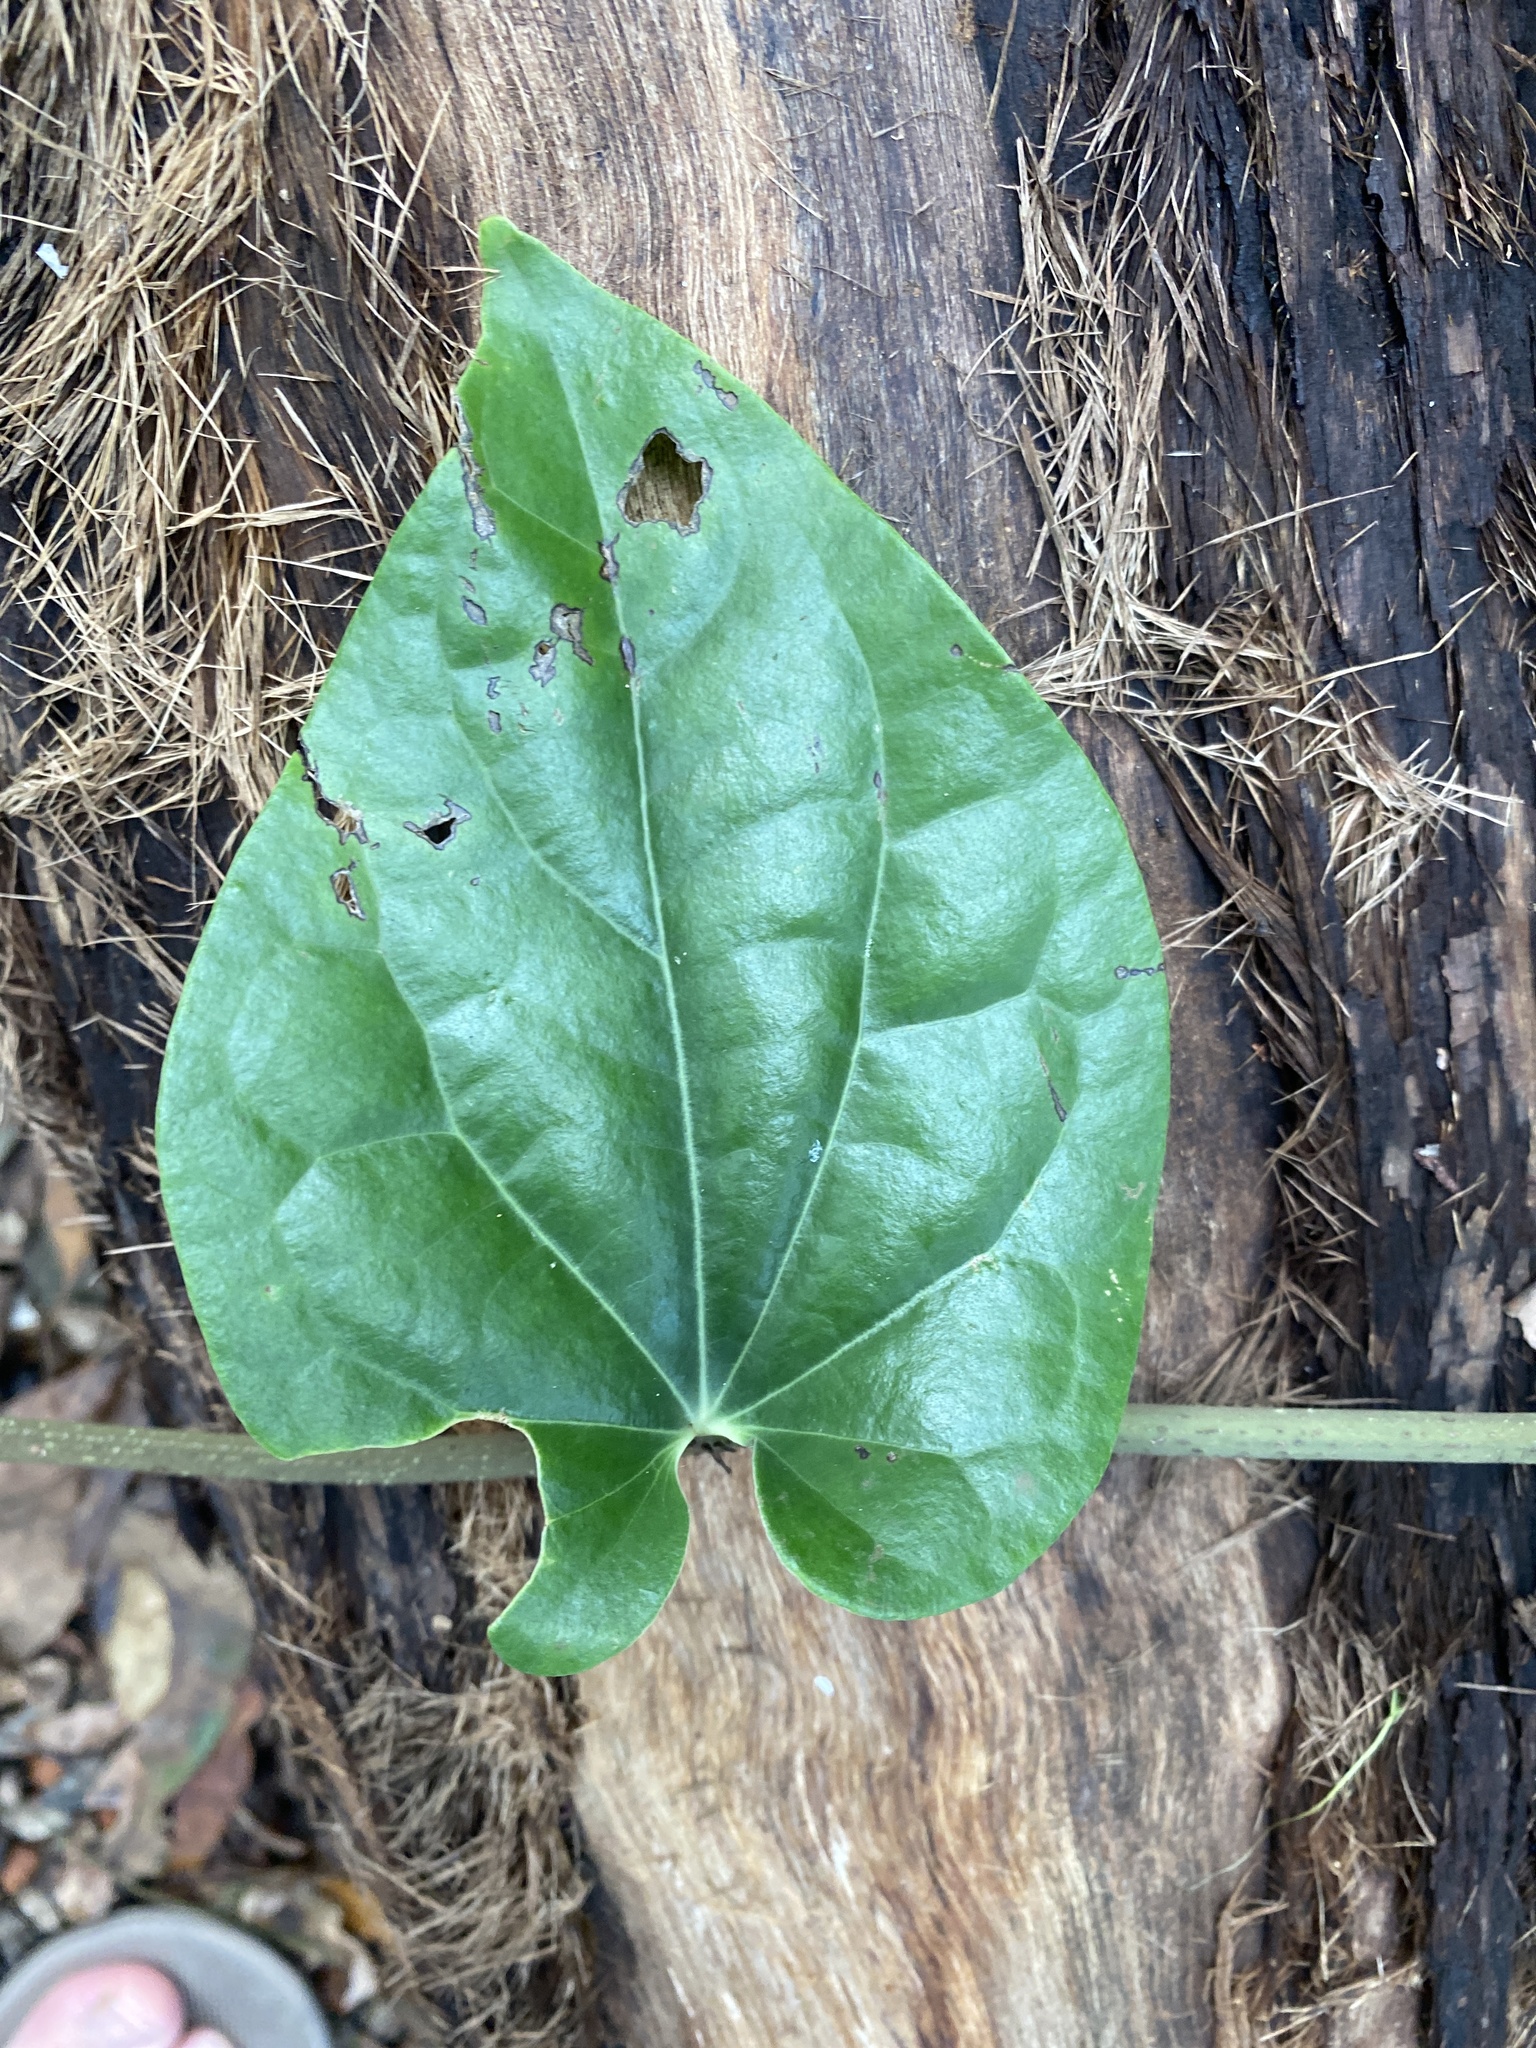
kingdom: Plantae
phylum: Tracheophyta
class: Magnoliopsida
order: Piperales
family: Piperaceae
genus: Piper
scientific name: Piper hederaceum
